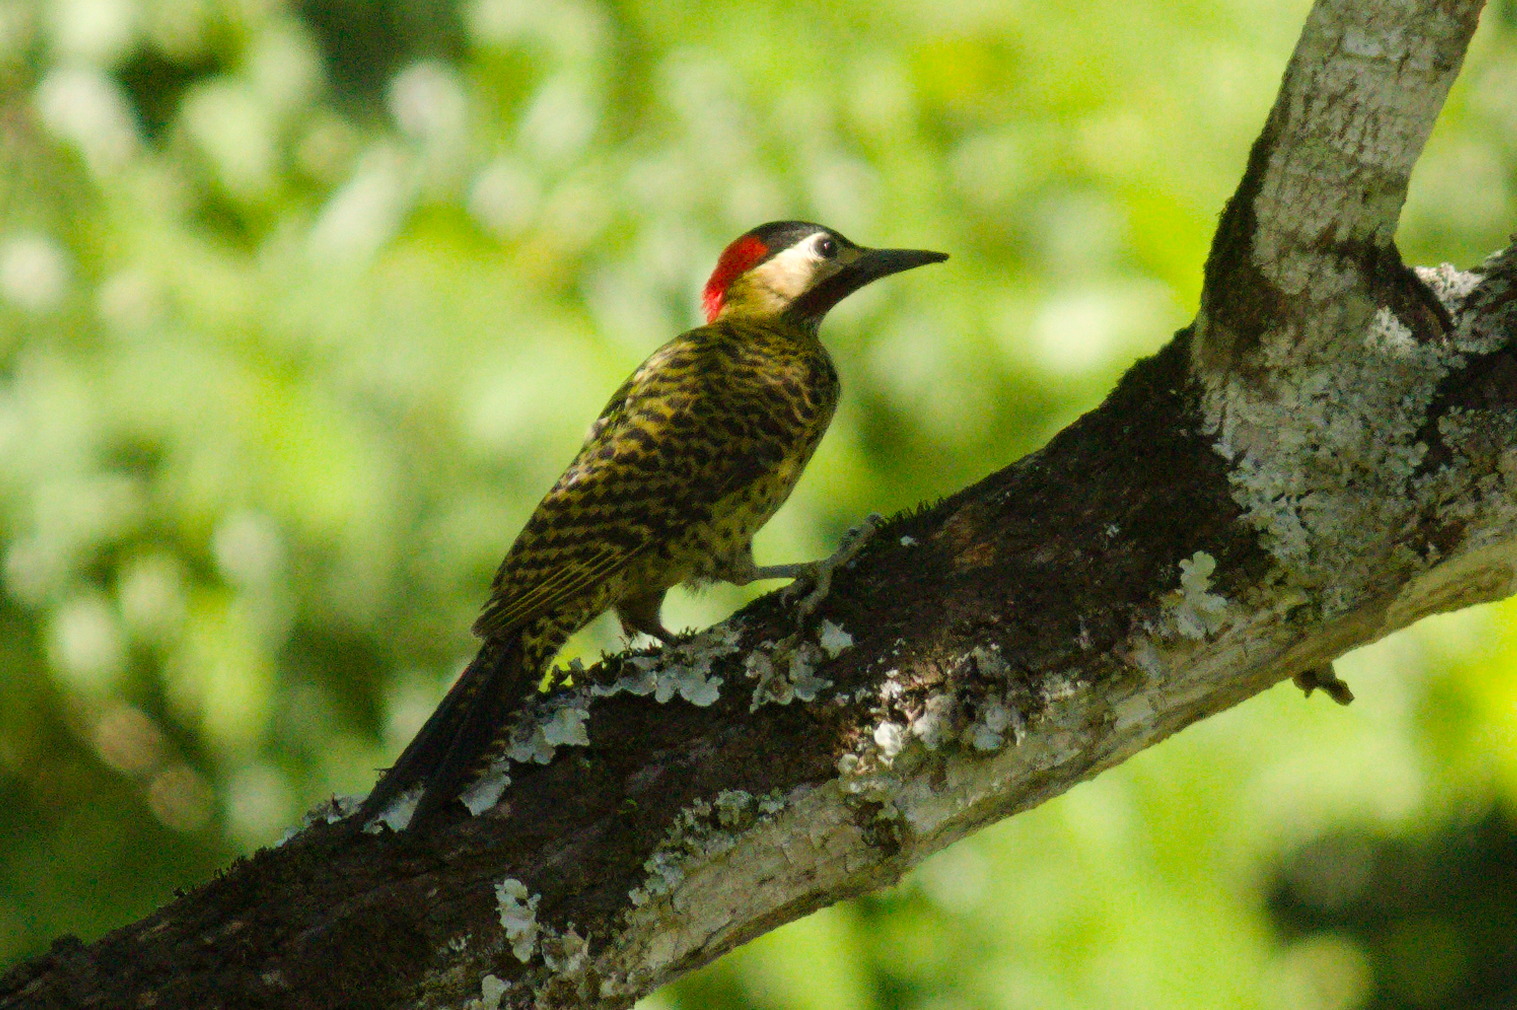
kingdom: Animalia
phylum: Chordata
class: Aves
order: Piciformes
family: Picidae
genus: Colaptes
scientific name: Colaptes melanochloros
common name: Green-barred woodpecker
